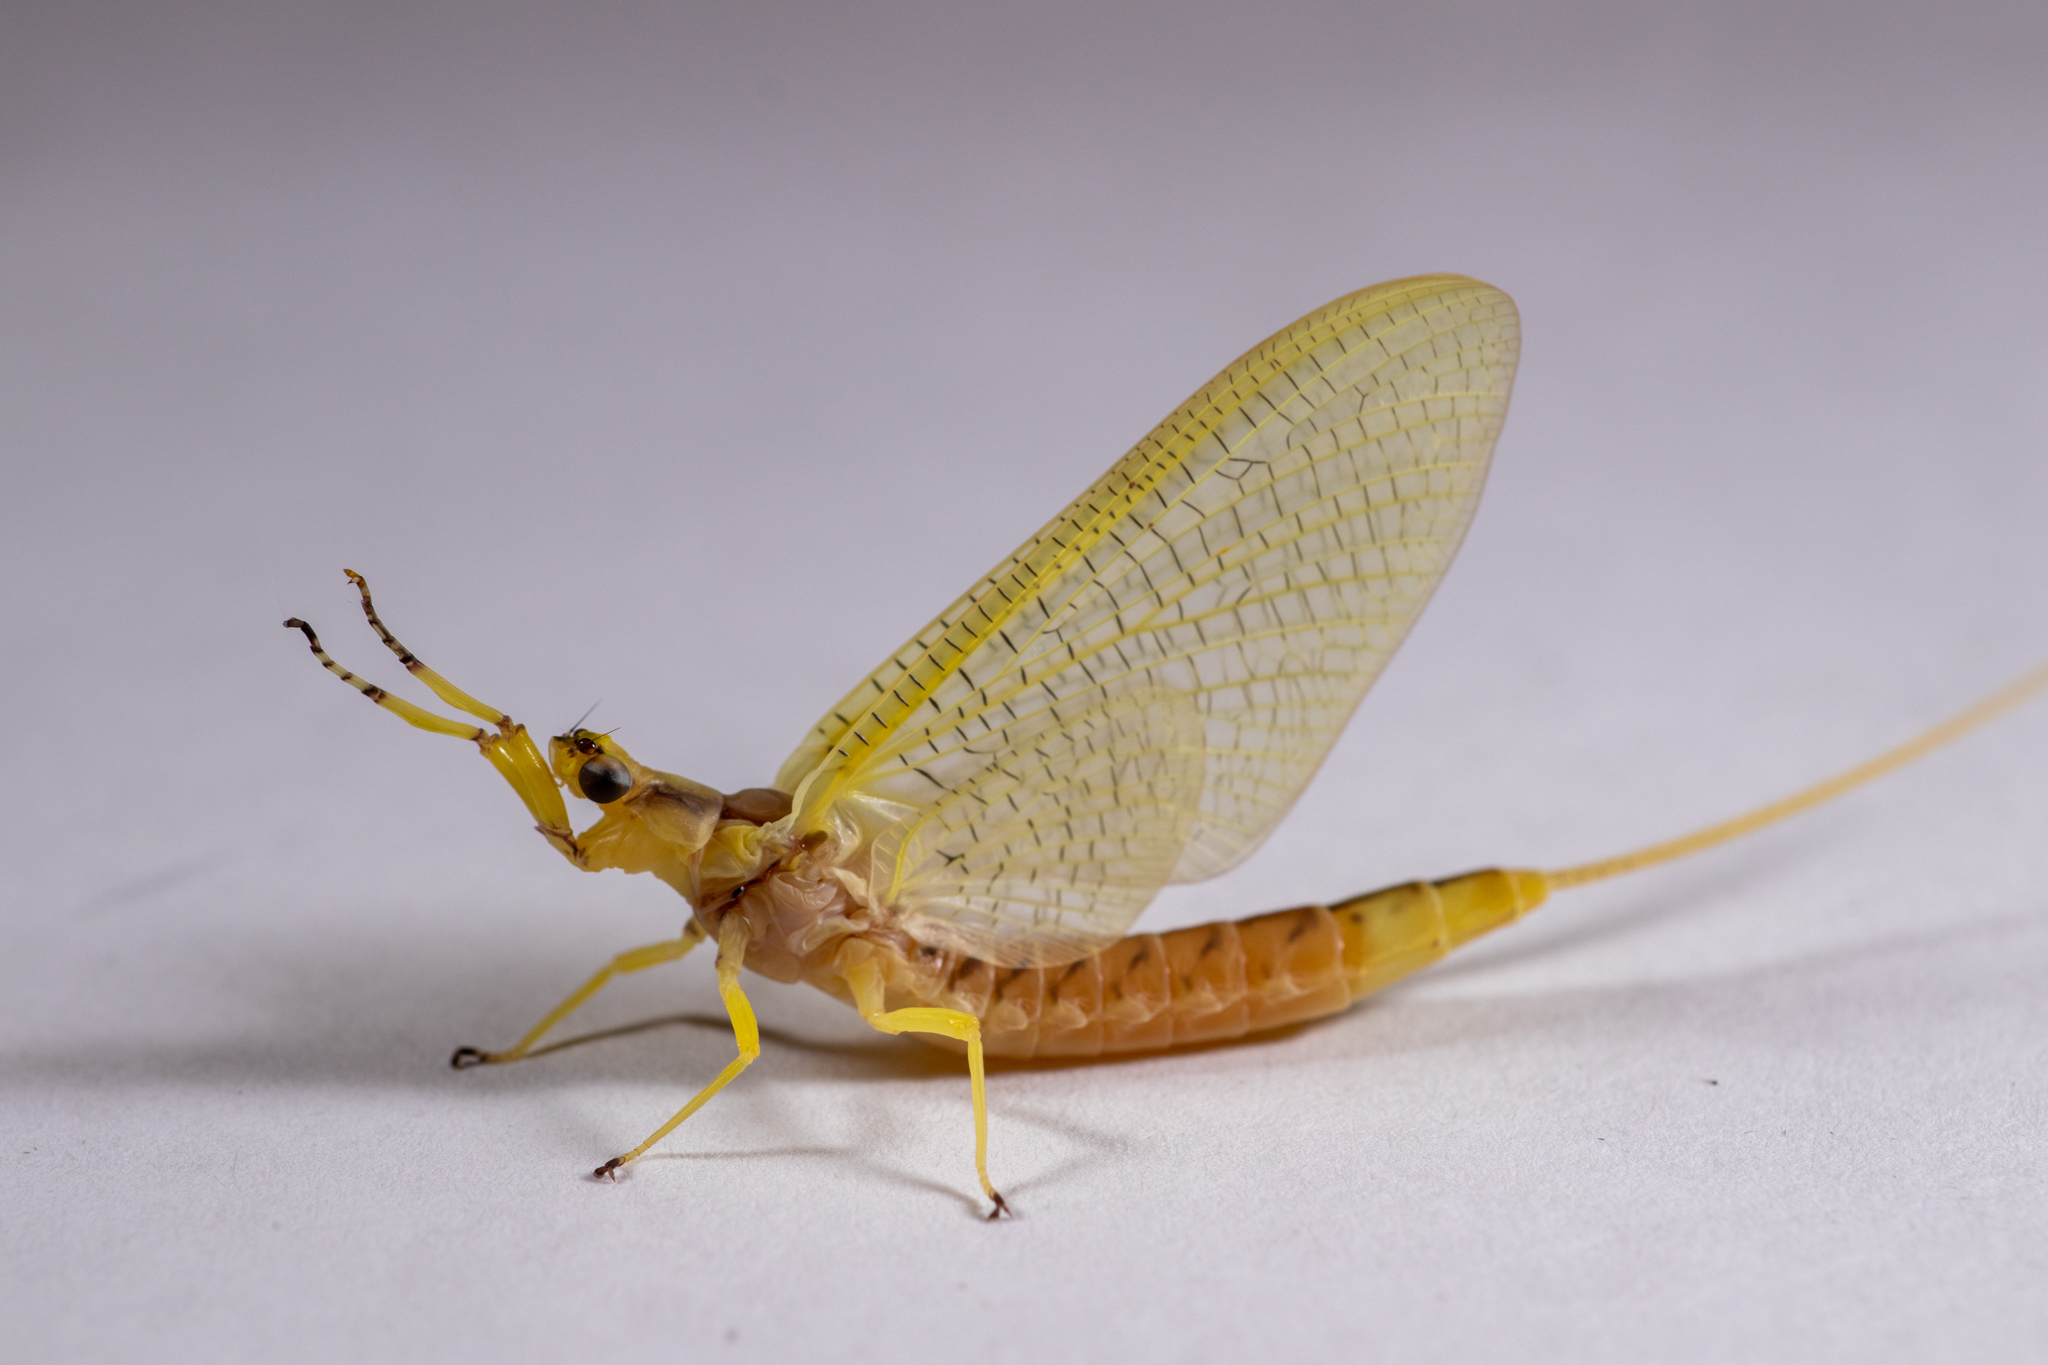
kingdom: Animalia
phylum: Arthropoda
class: Insecta
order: Ephemeroptera
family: Ephemeridae
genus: Hexagenia
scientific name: Hexagenia limbata
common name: Giant mayfly
